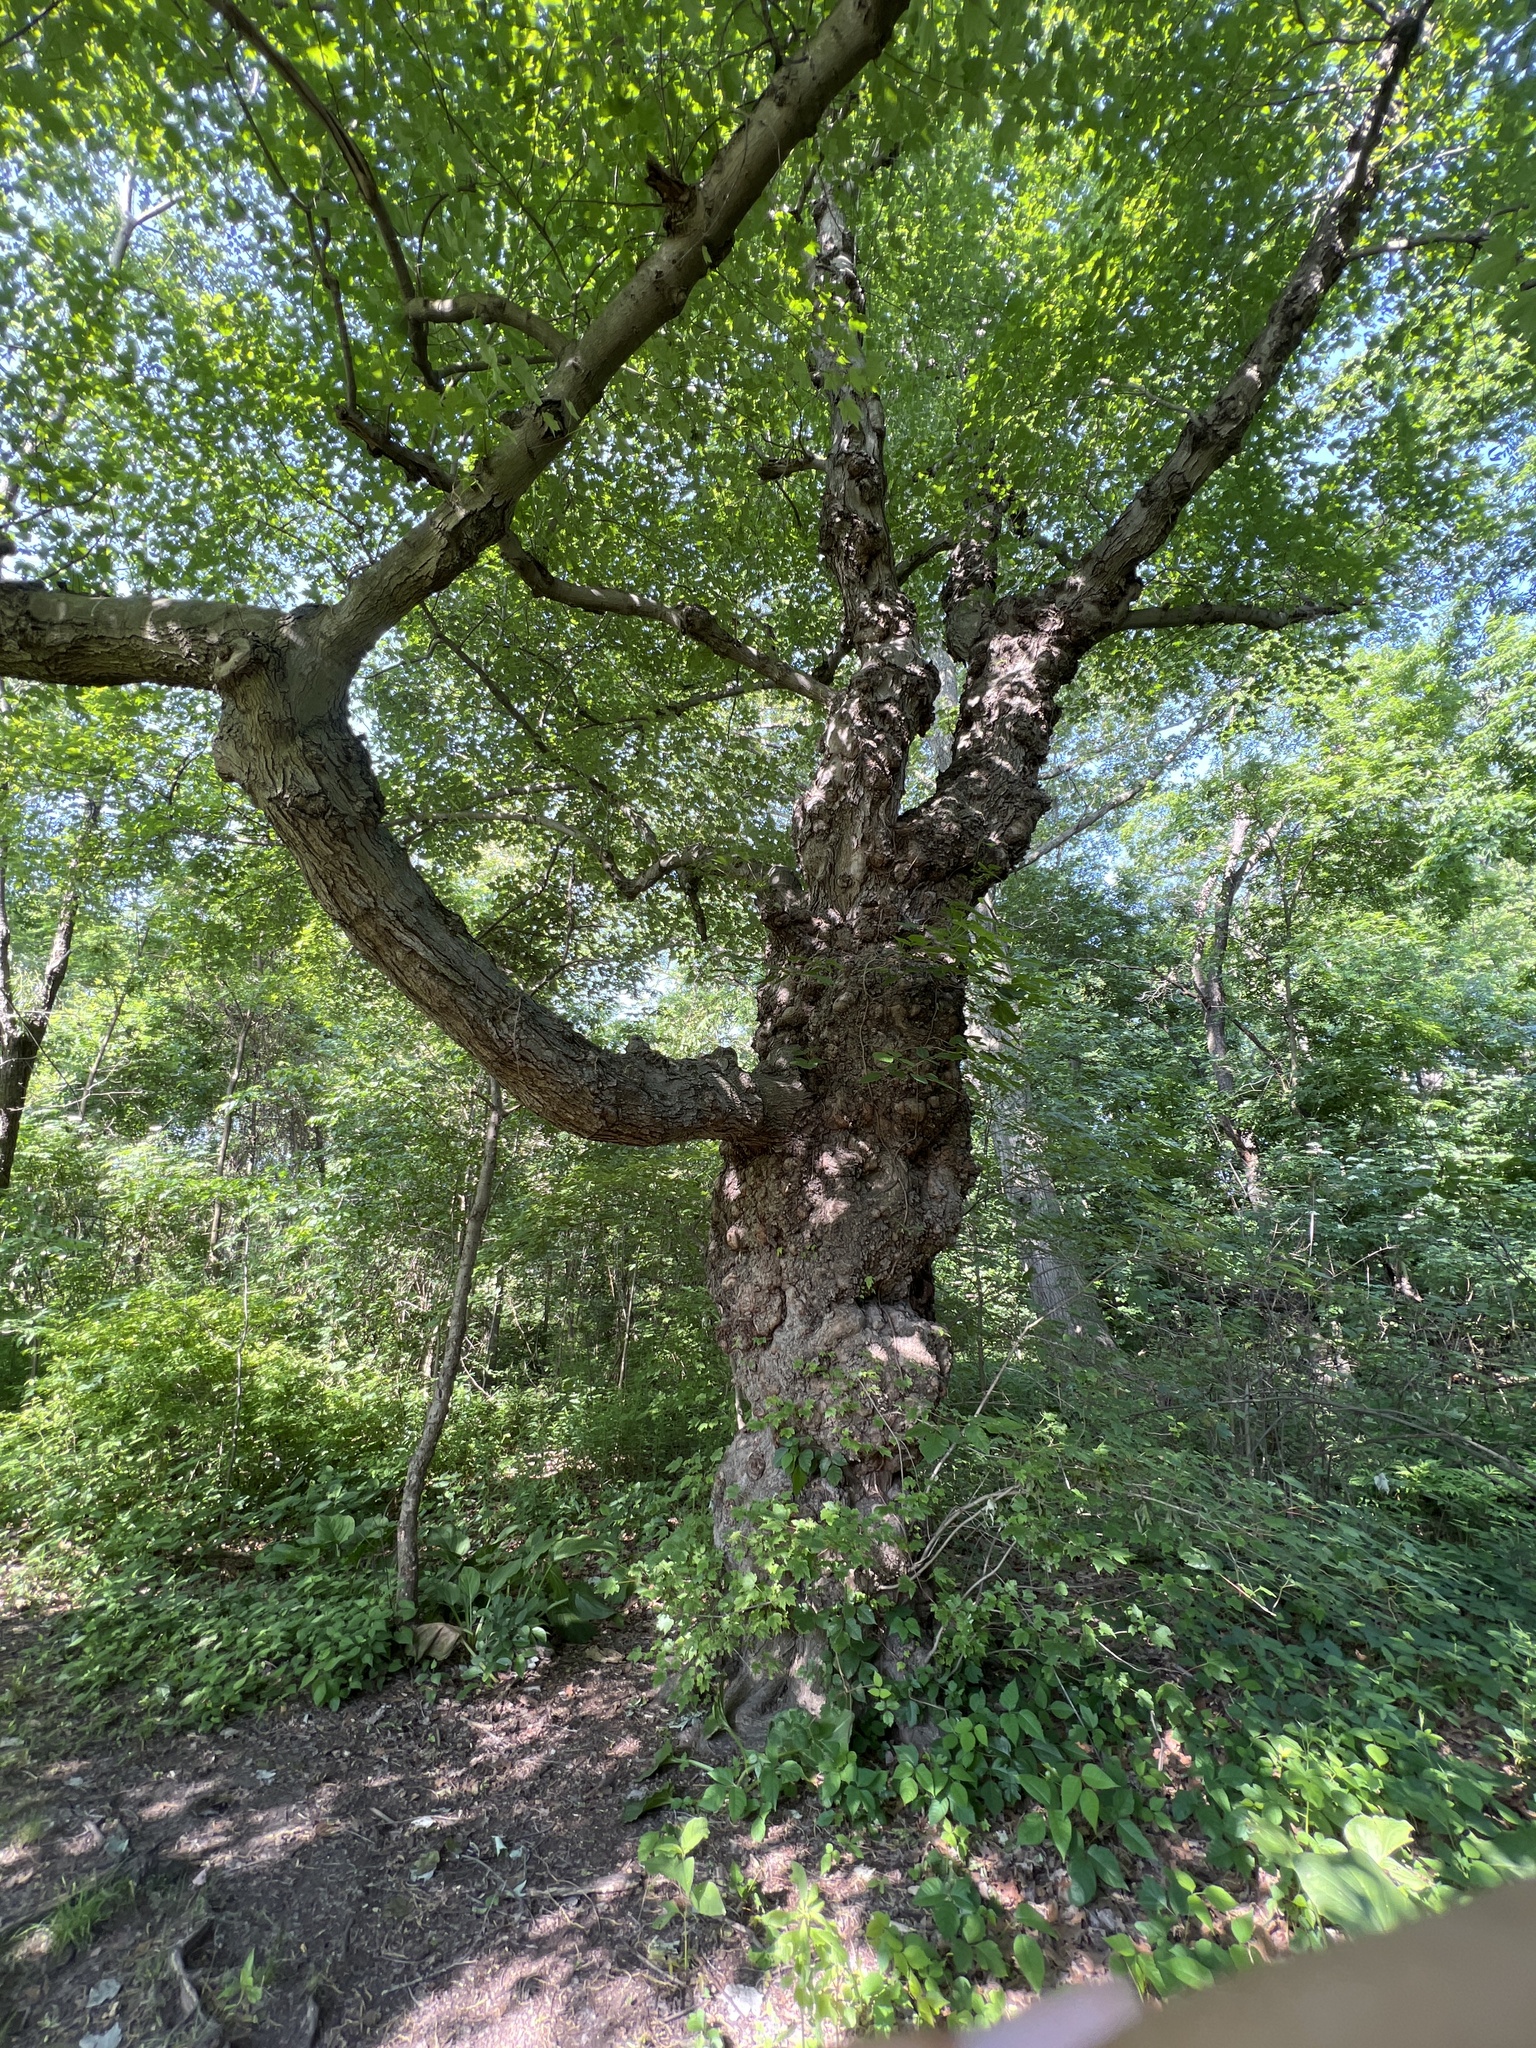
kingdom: Plantae
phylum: Tracheophyta
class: Magnoliopsida
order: Sapindales
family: Sapindaceae
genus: Acer
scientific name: Acer rubrum
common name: Red maple
